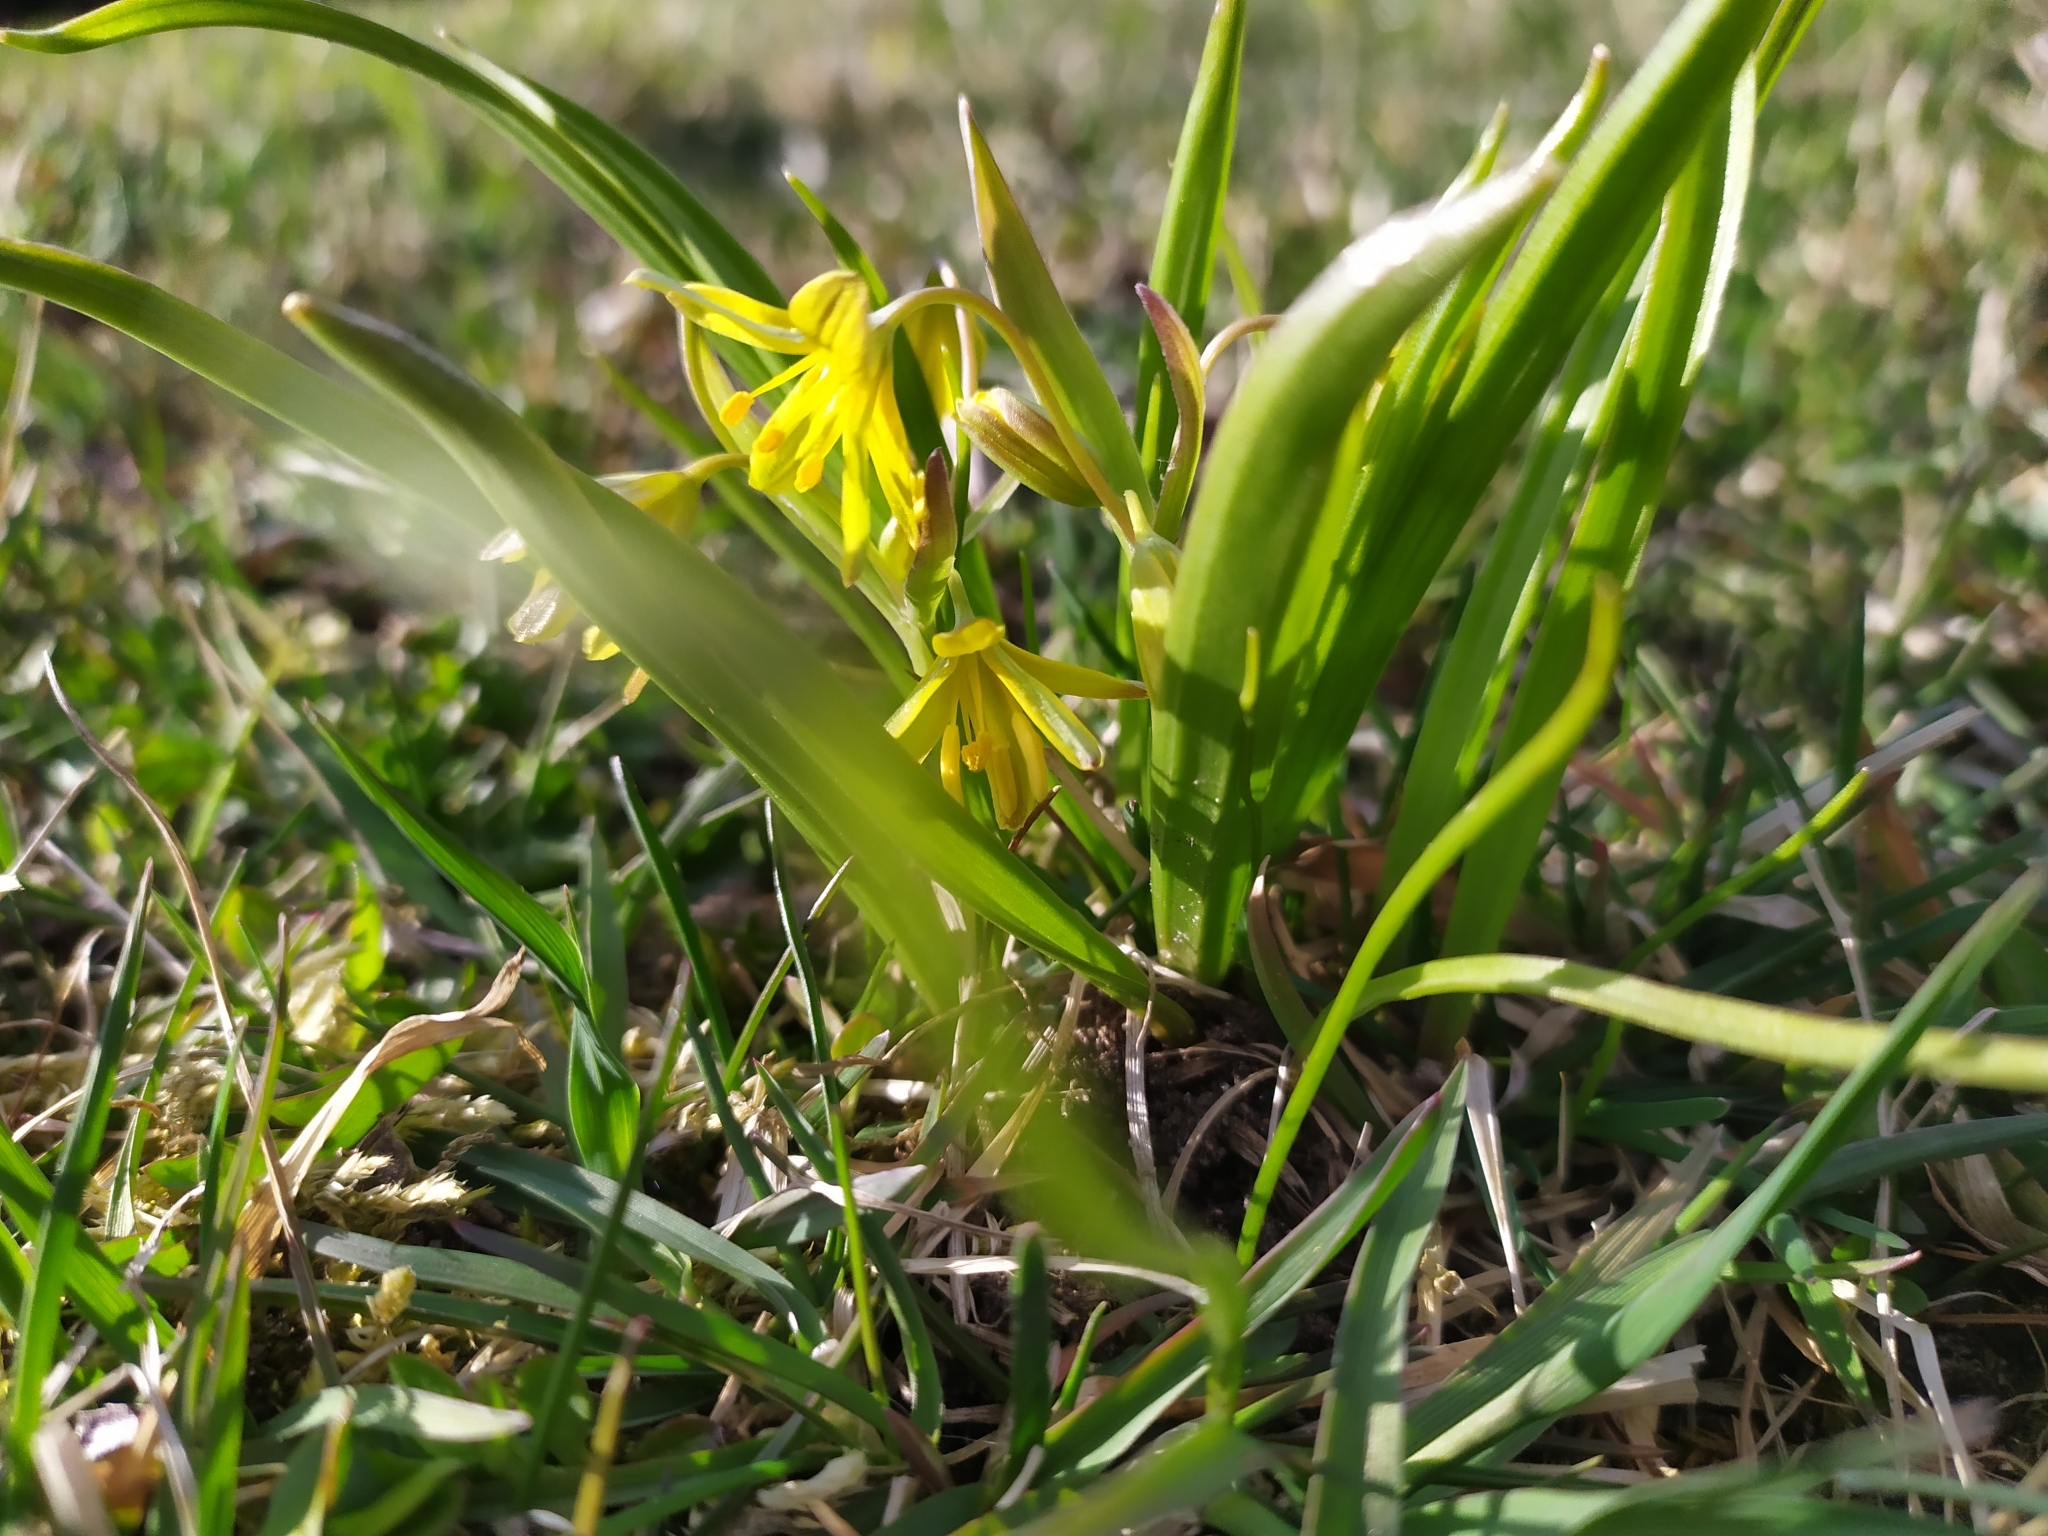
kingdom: Plantae
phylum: Tracheophyta
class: Liliopsida
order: Liliales
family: Liliaceae
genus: Gagea
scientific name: Gagea lutea
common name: Yellow star-of-bethlehem
